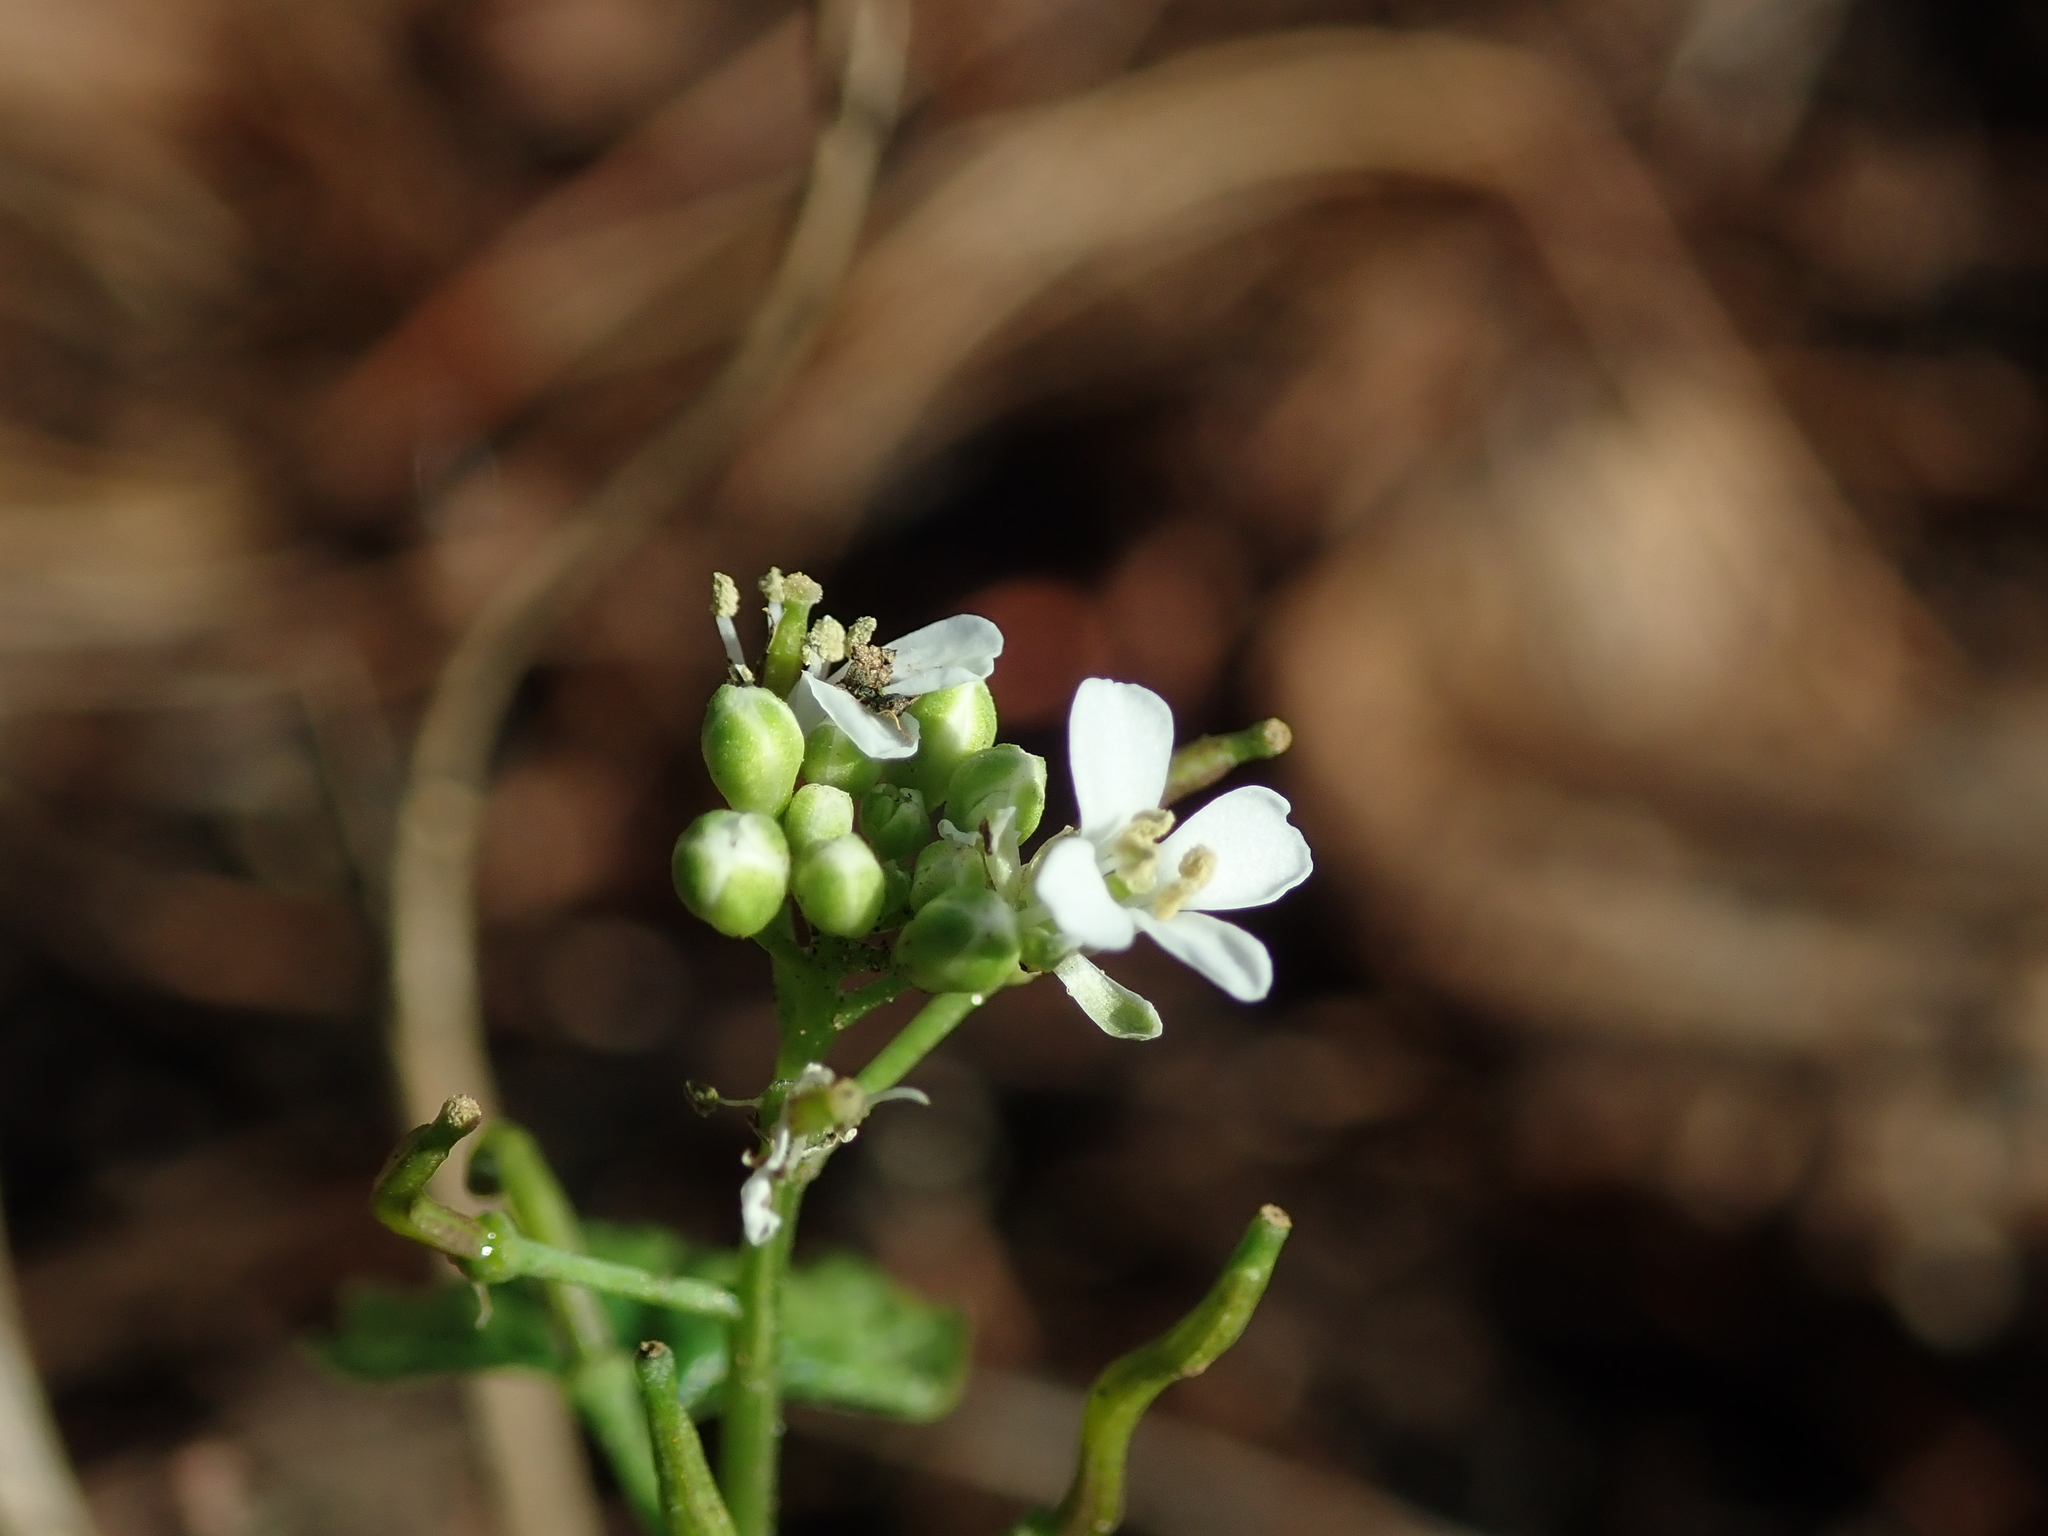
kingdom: Plantae
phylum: Tracheophyta
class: Magnoliopsida
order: Brassicales
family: Brassicaceae
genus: Alliaria
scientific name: Alliaria petiolata
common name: Garlic mustard
